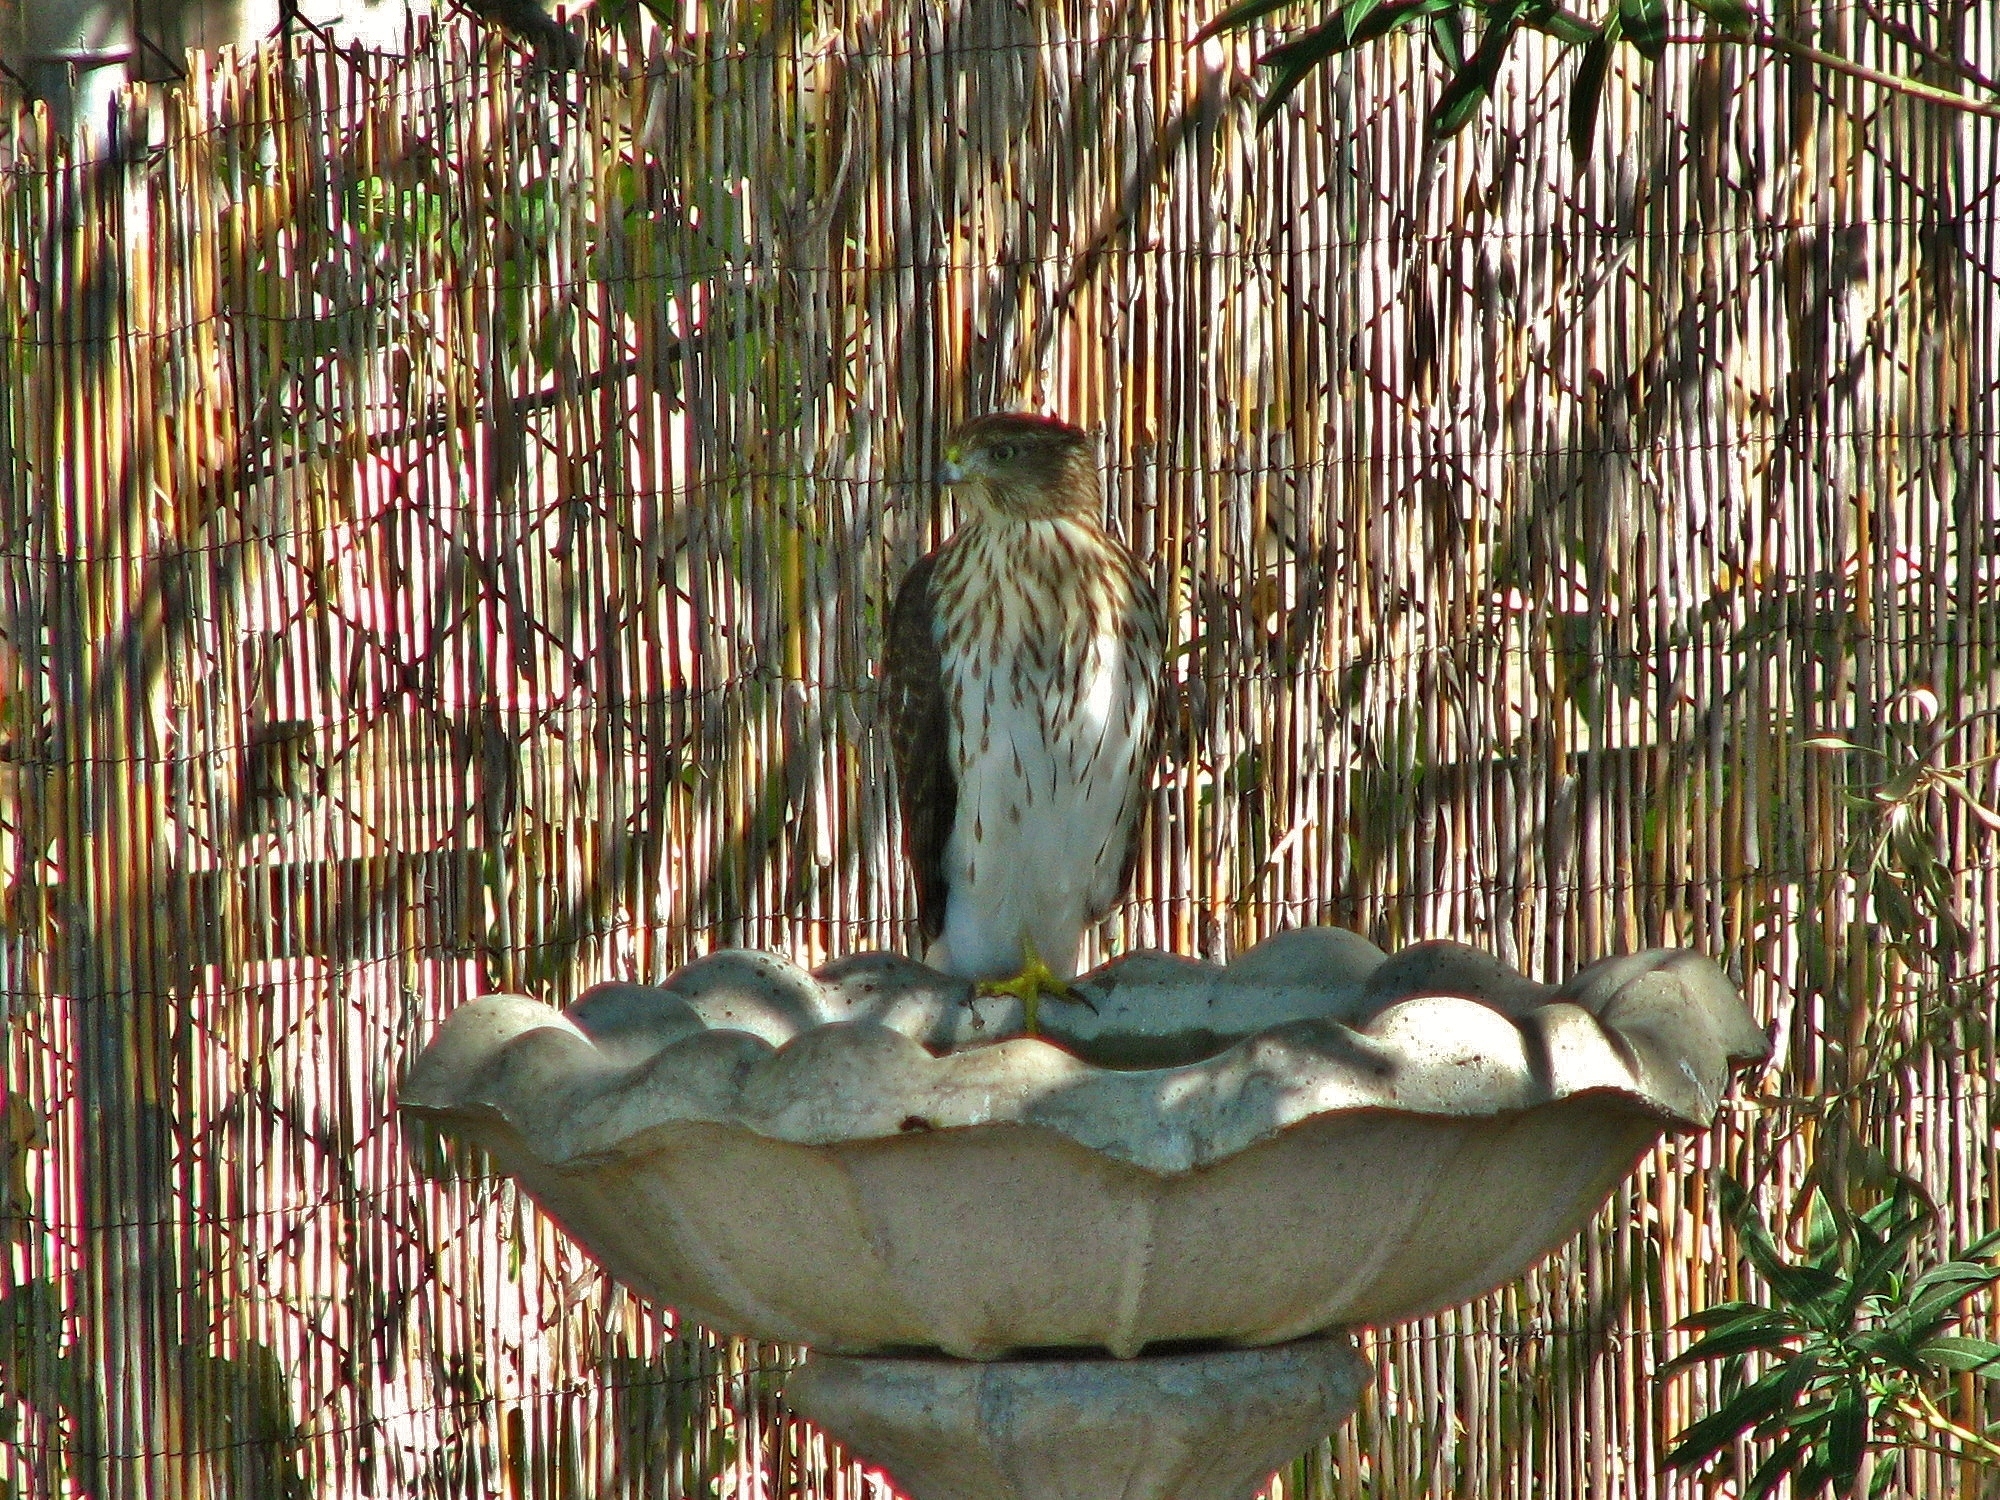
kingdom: Animalia
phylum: Chordata
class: Aves
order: Accipitriformes
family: Accipitridae
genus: Accipiter
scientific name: Accipiter cooperii
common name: Cooper's hawk
